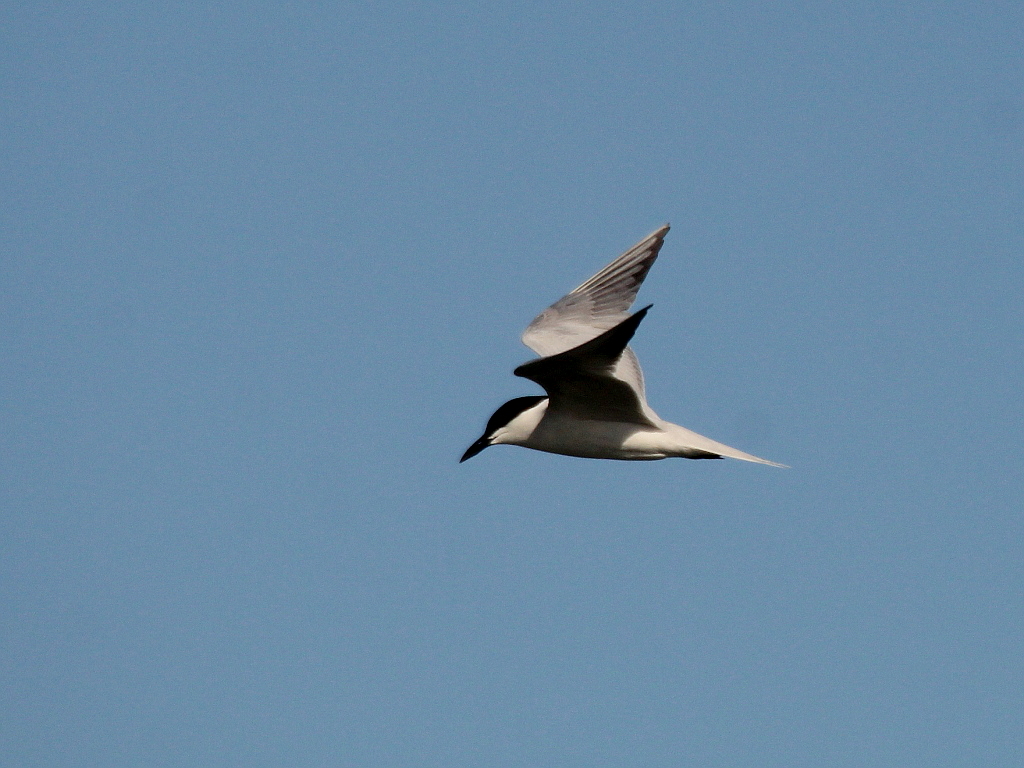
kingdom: Animalia
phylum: Chordata
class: Aves
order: Charadriiformes
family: Laridae
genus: Gelochelidon
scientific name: Gelochelidon nilotica
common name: Gull-billed tern
